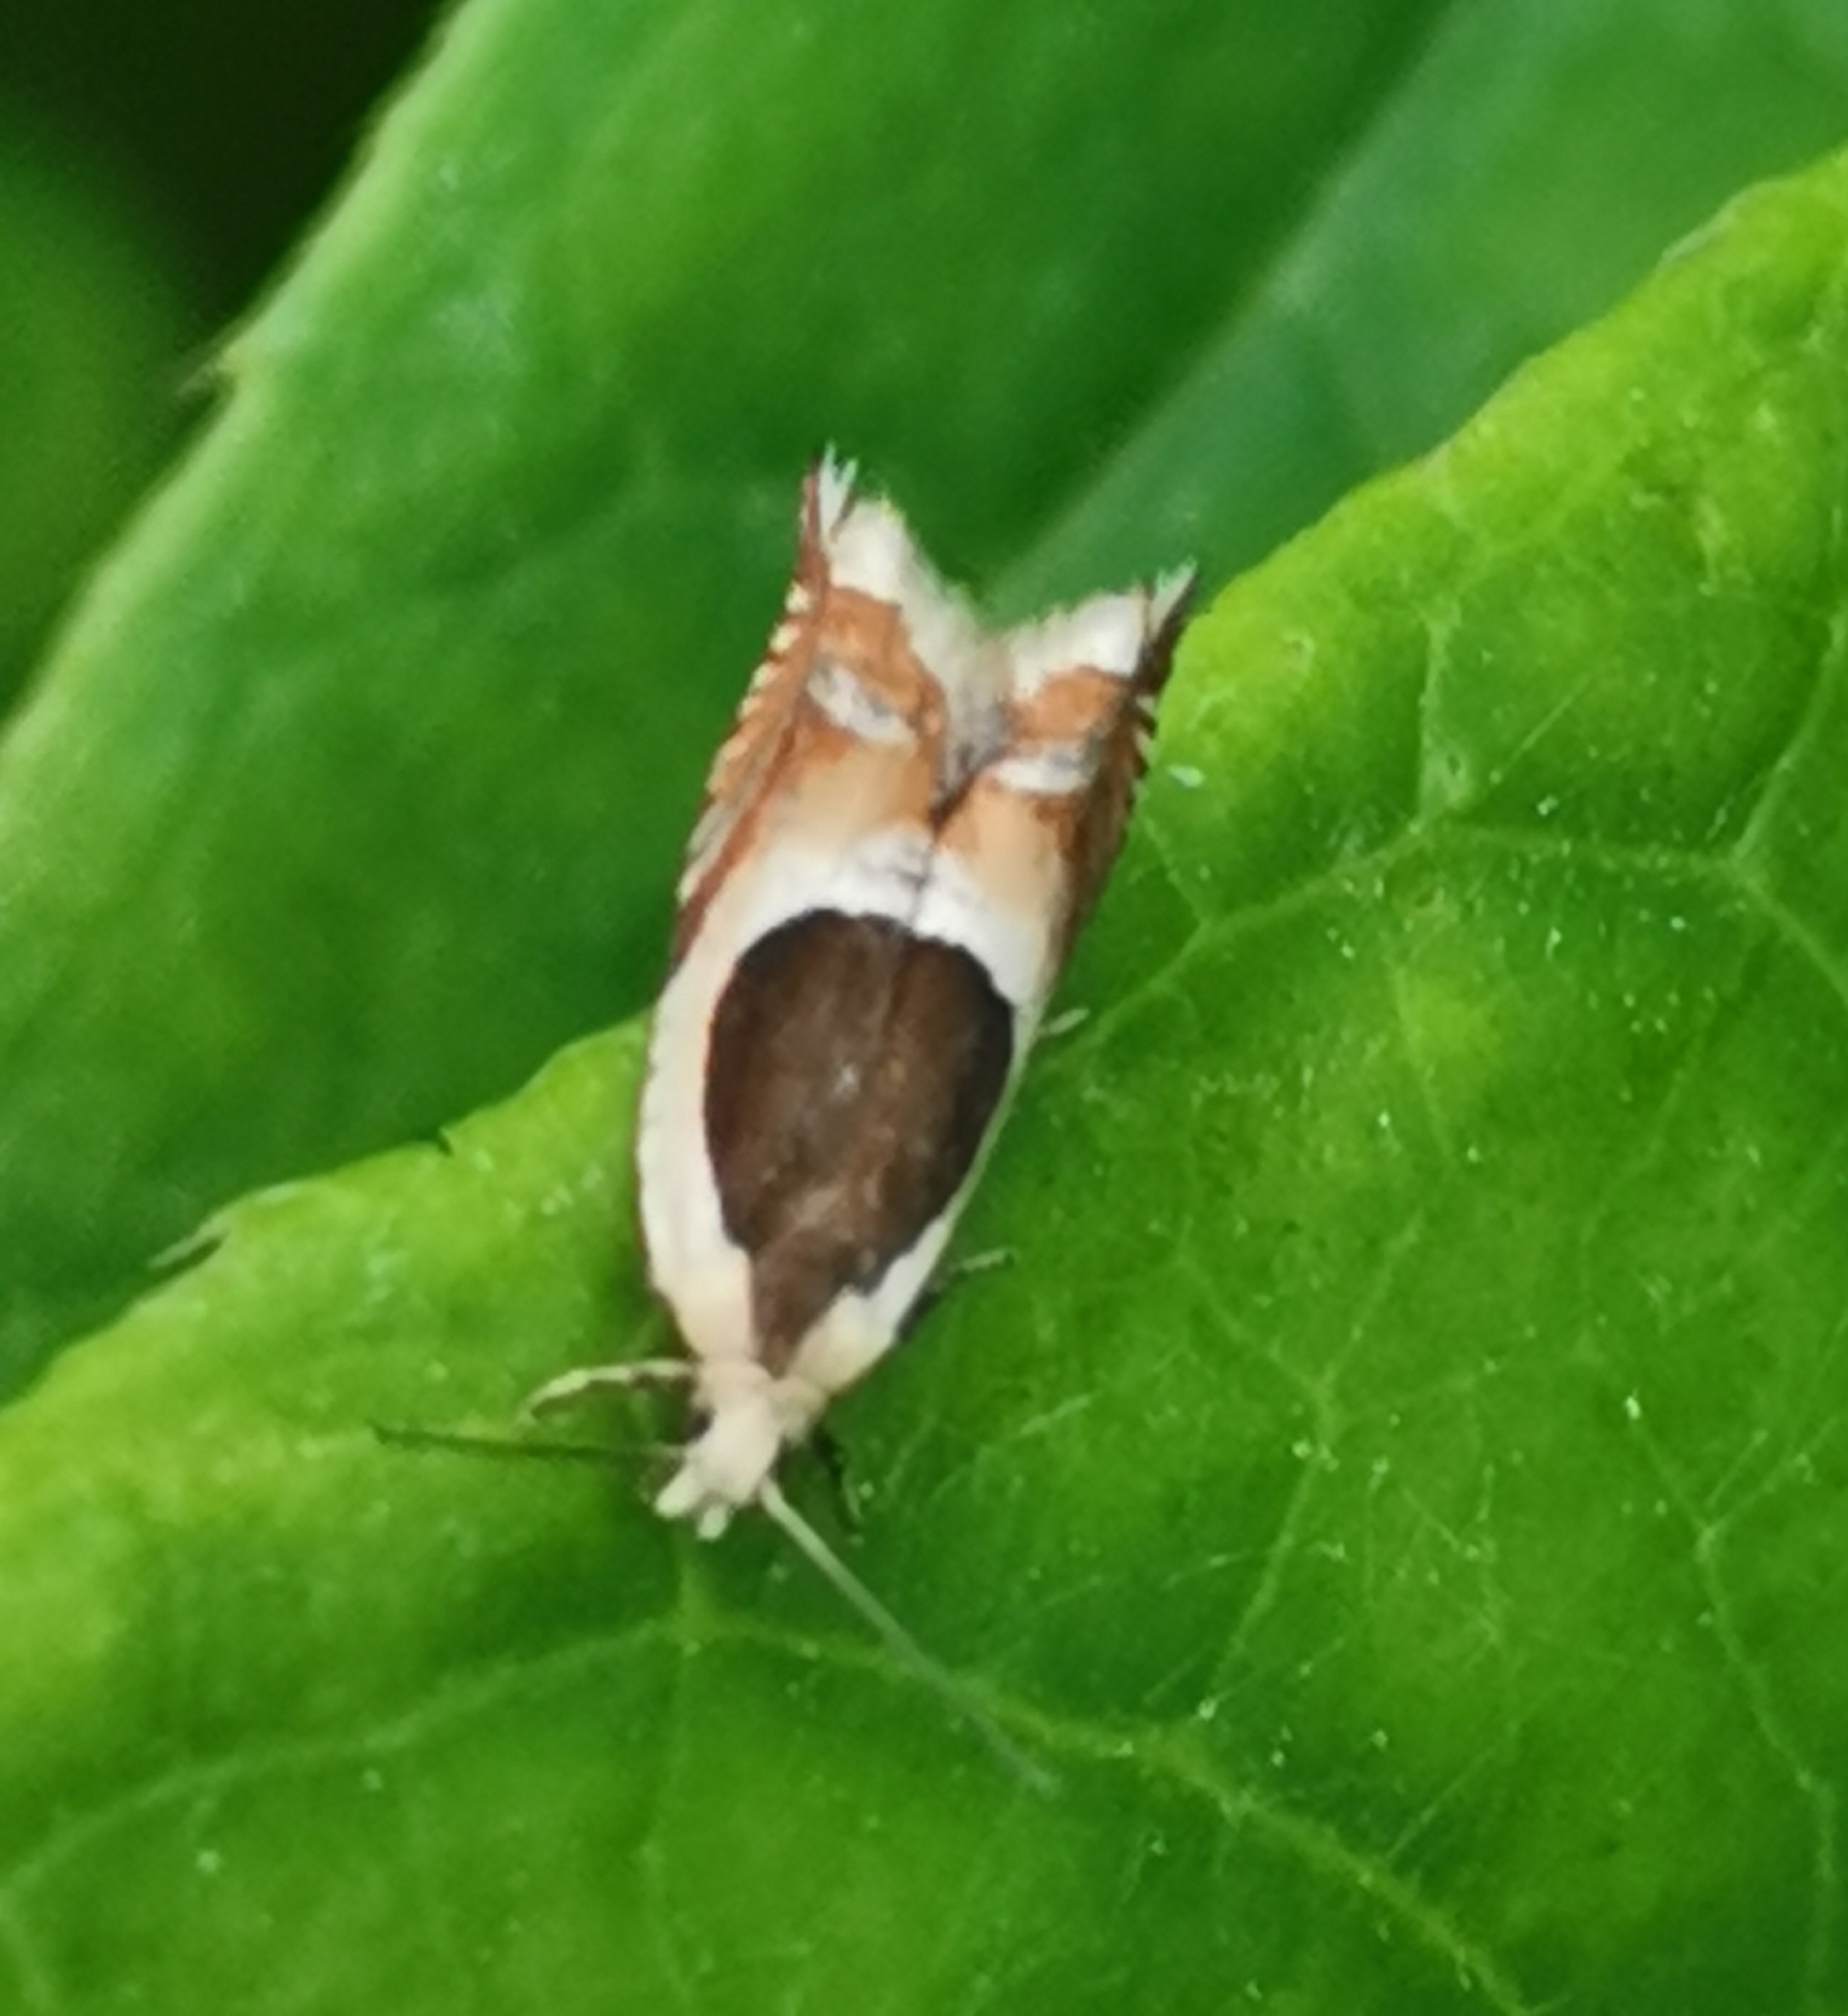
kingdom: Animalia
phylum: Arthropoda
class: Insecta
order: Lepidoptera
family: Tortricidae
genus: Ancylis
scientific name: Ancylis badiana
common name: Common roller
